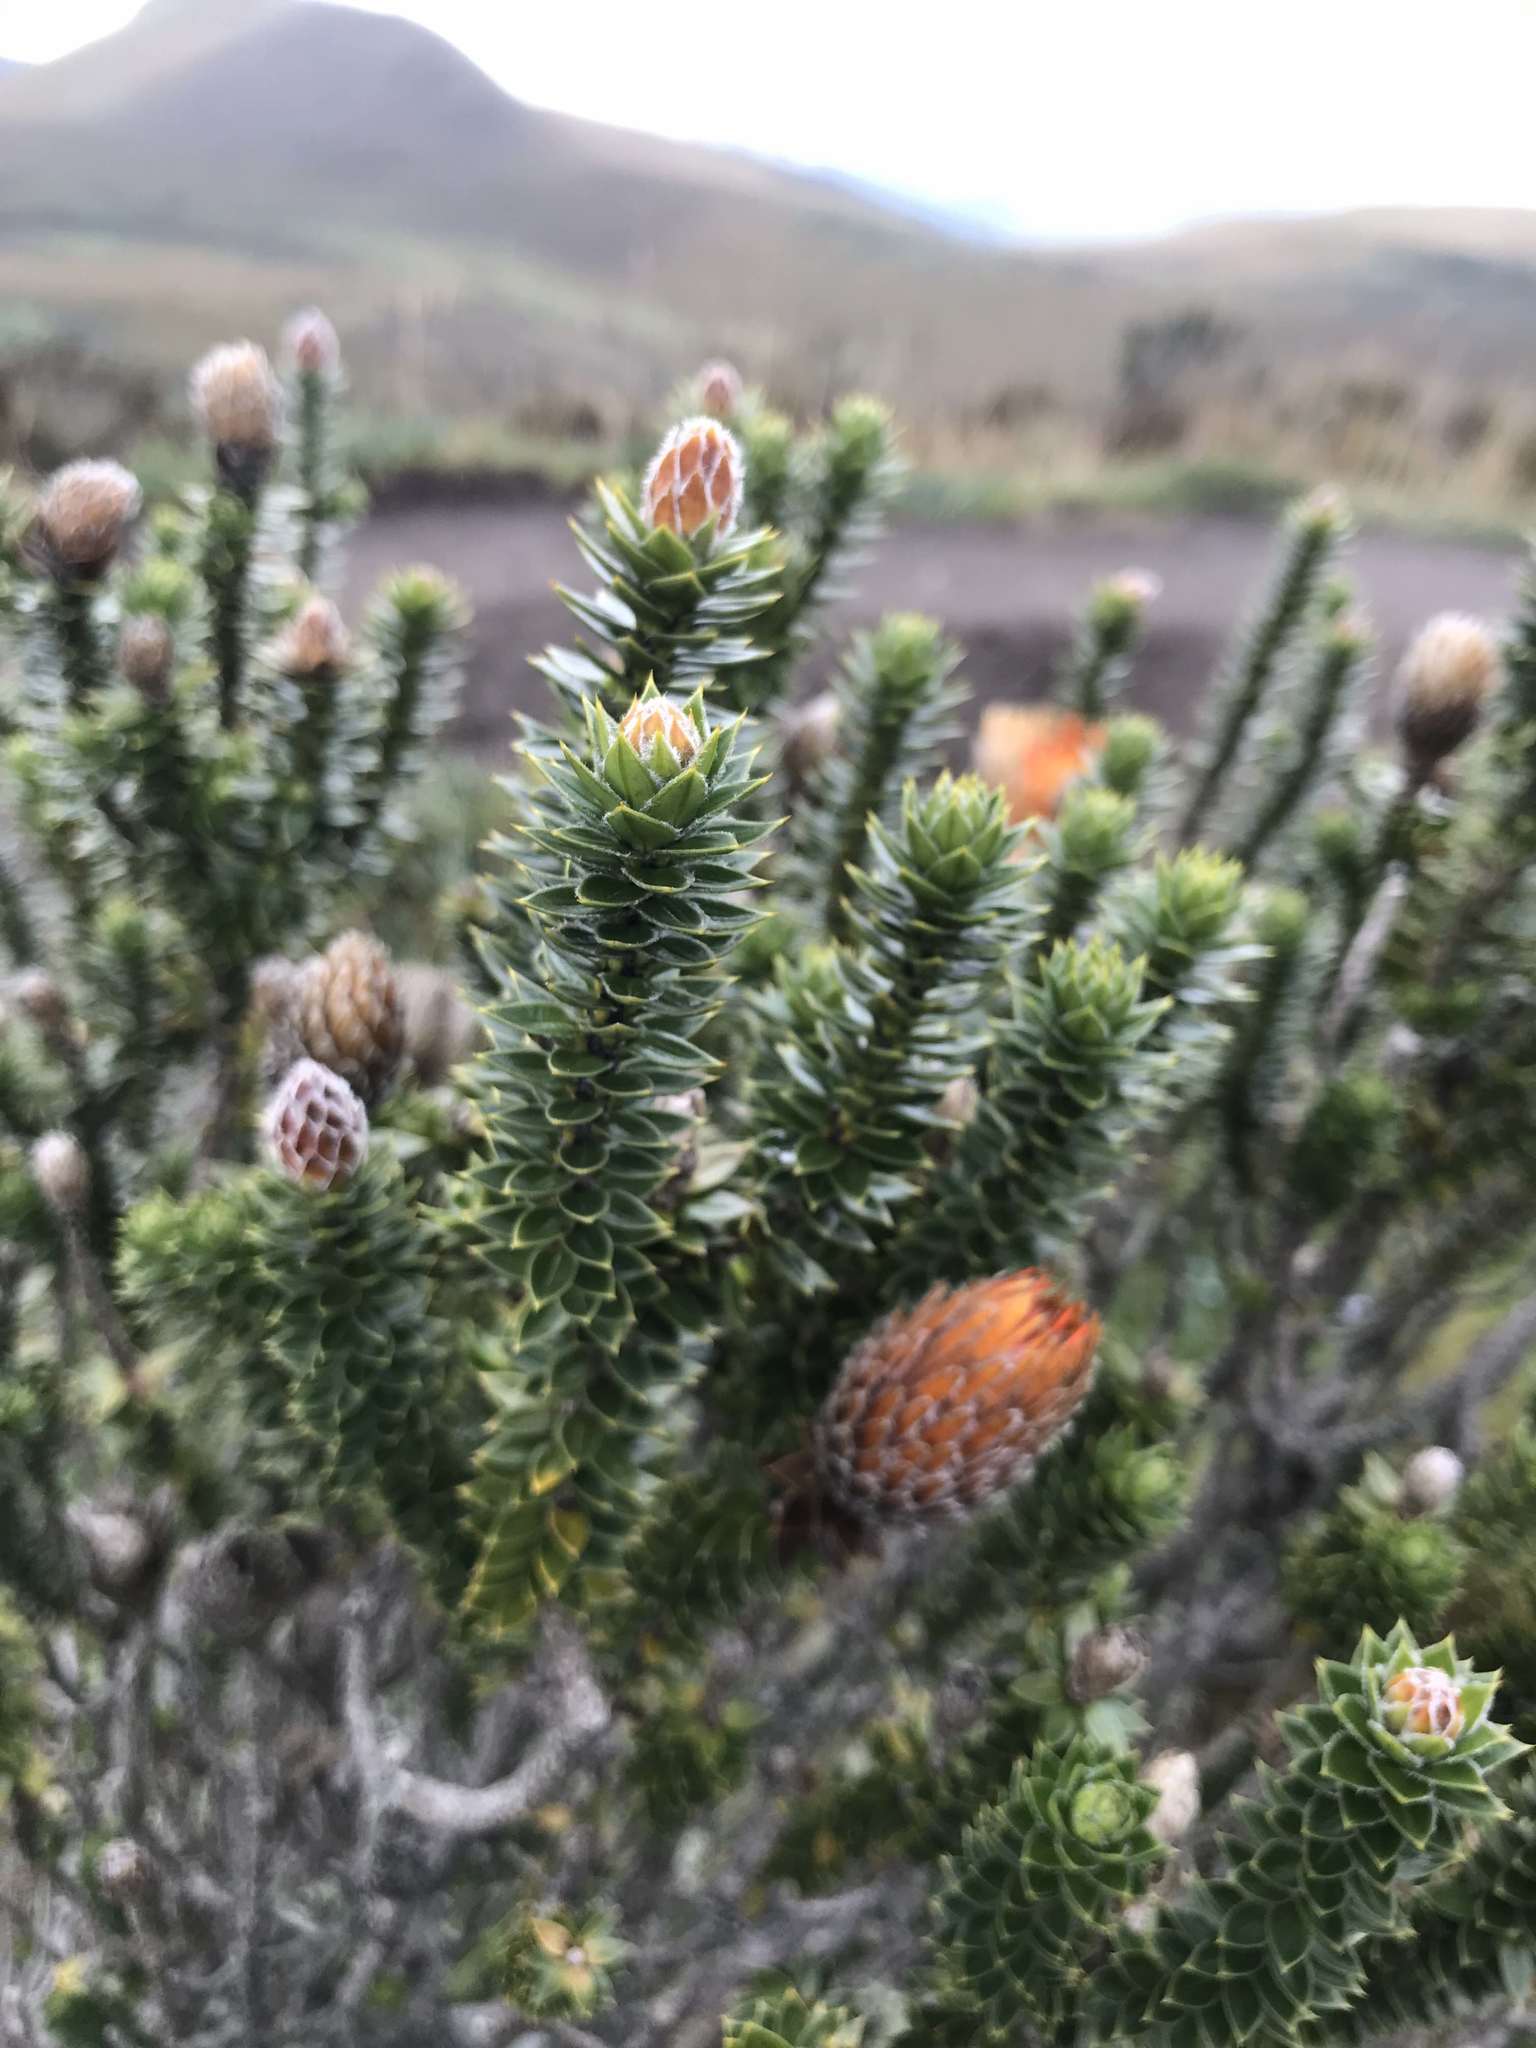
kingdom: Plantae
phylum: Tracheophyta
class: Magnoliopsida
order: Asterales
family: Asteraceae
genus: Chuquiraga
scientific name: Chuquiraga jussieui
